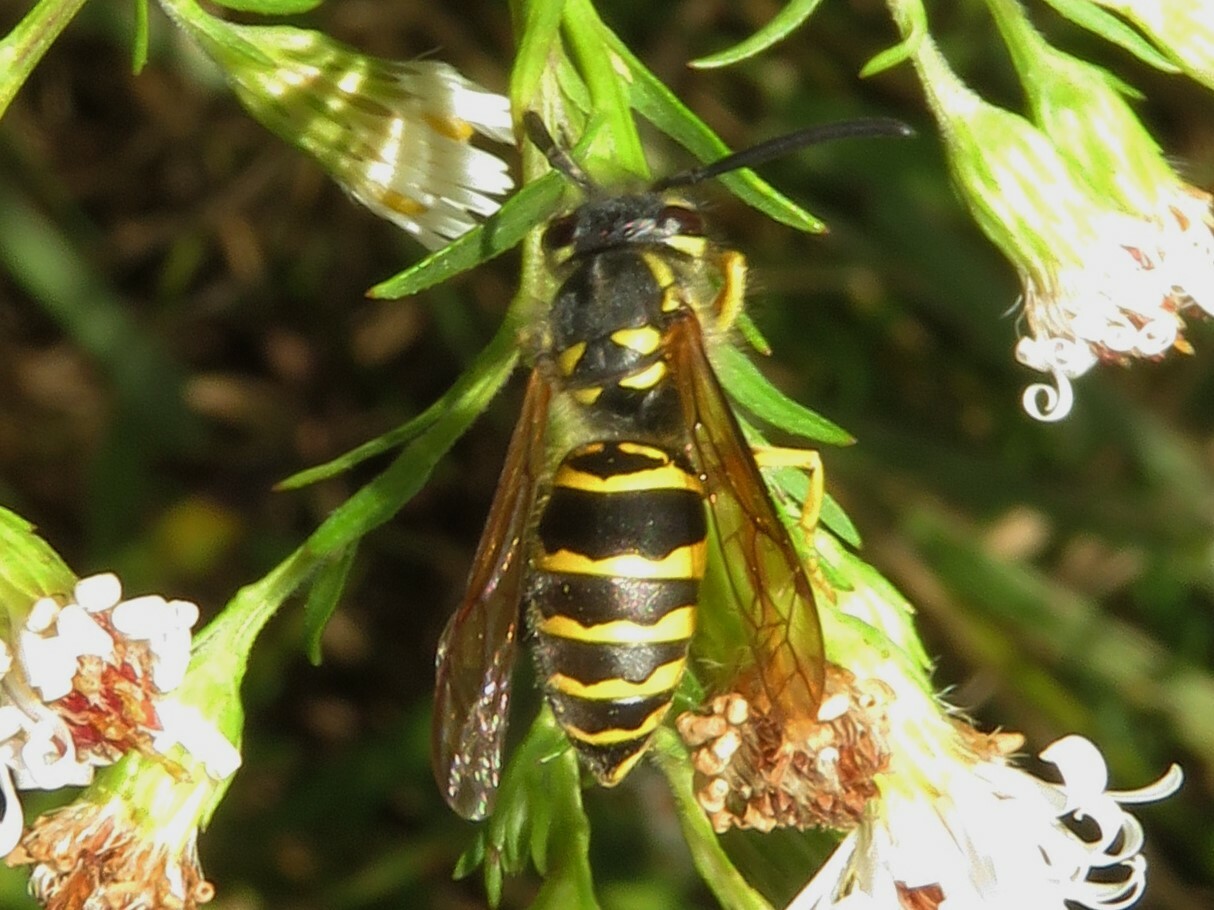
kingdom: Animalia
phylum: Arthropoda
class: Insecta
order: Hymenoptera
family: Vespidae
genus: Vespula
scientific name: Vespula maculifrons
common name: Eastern yellowjacket
